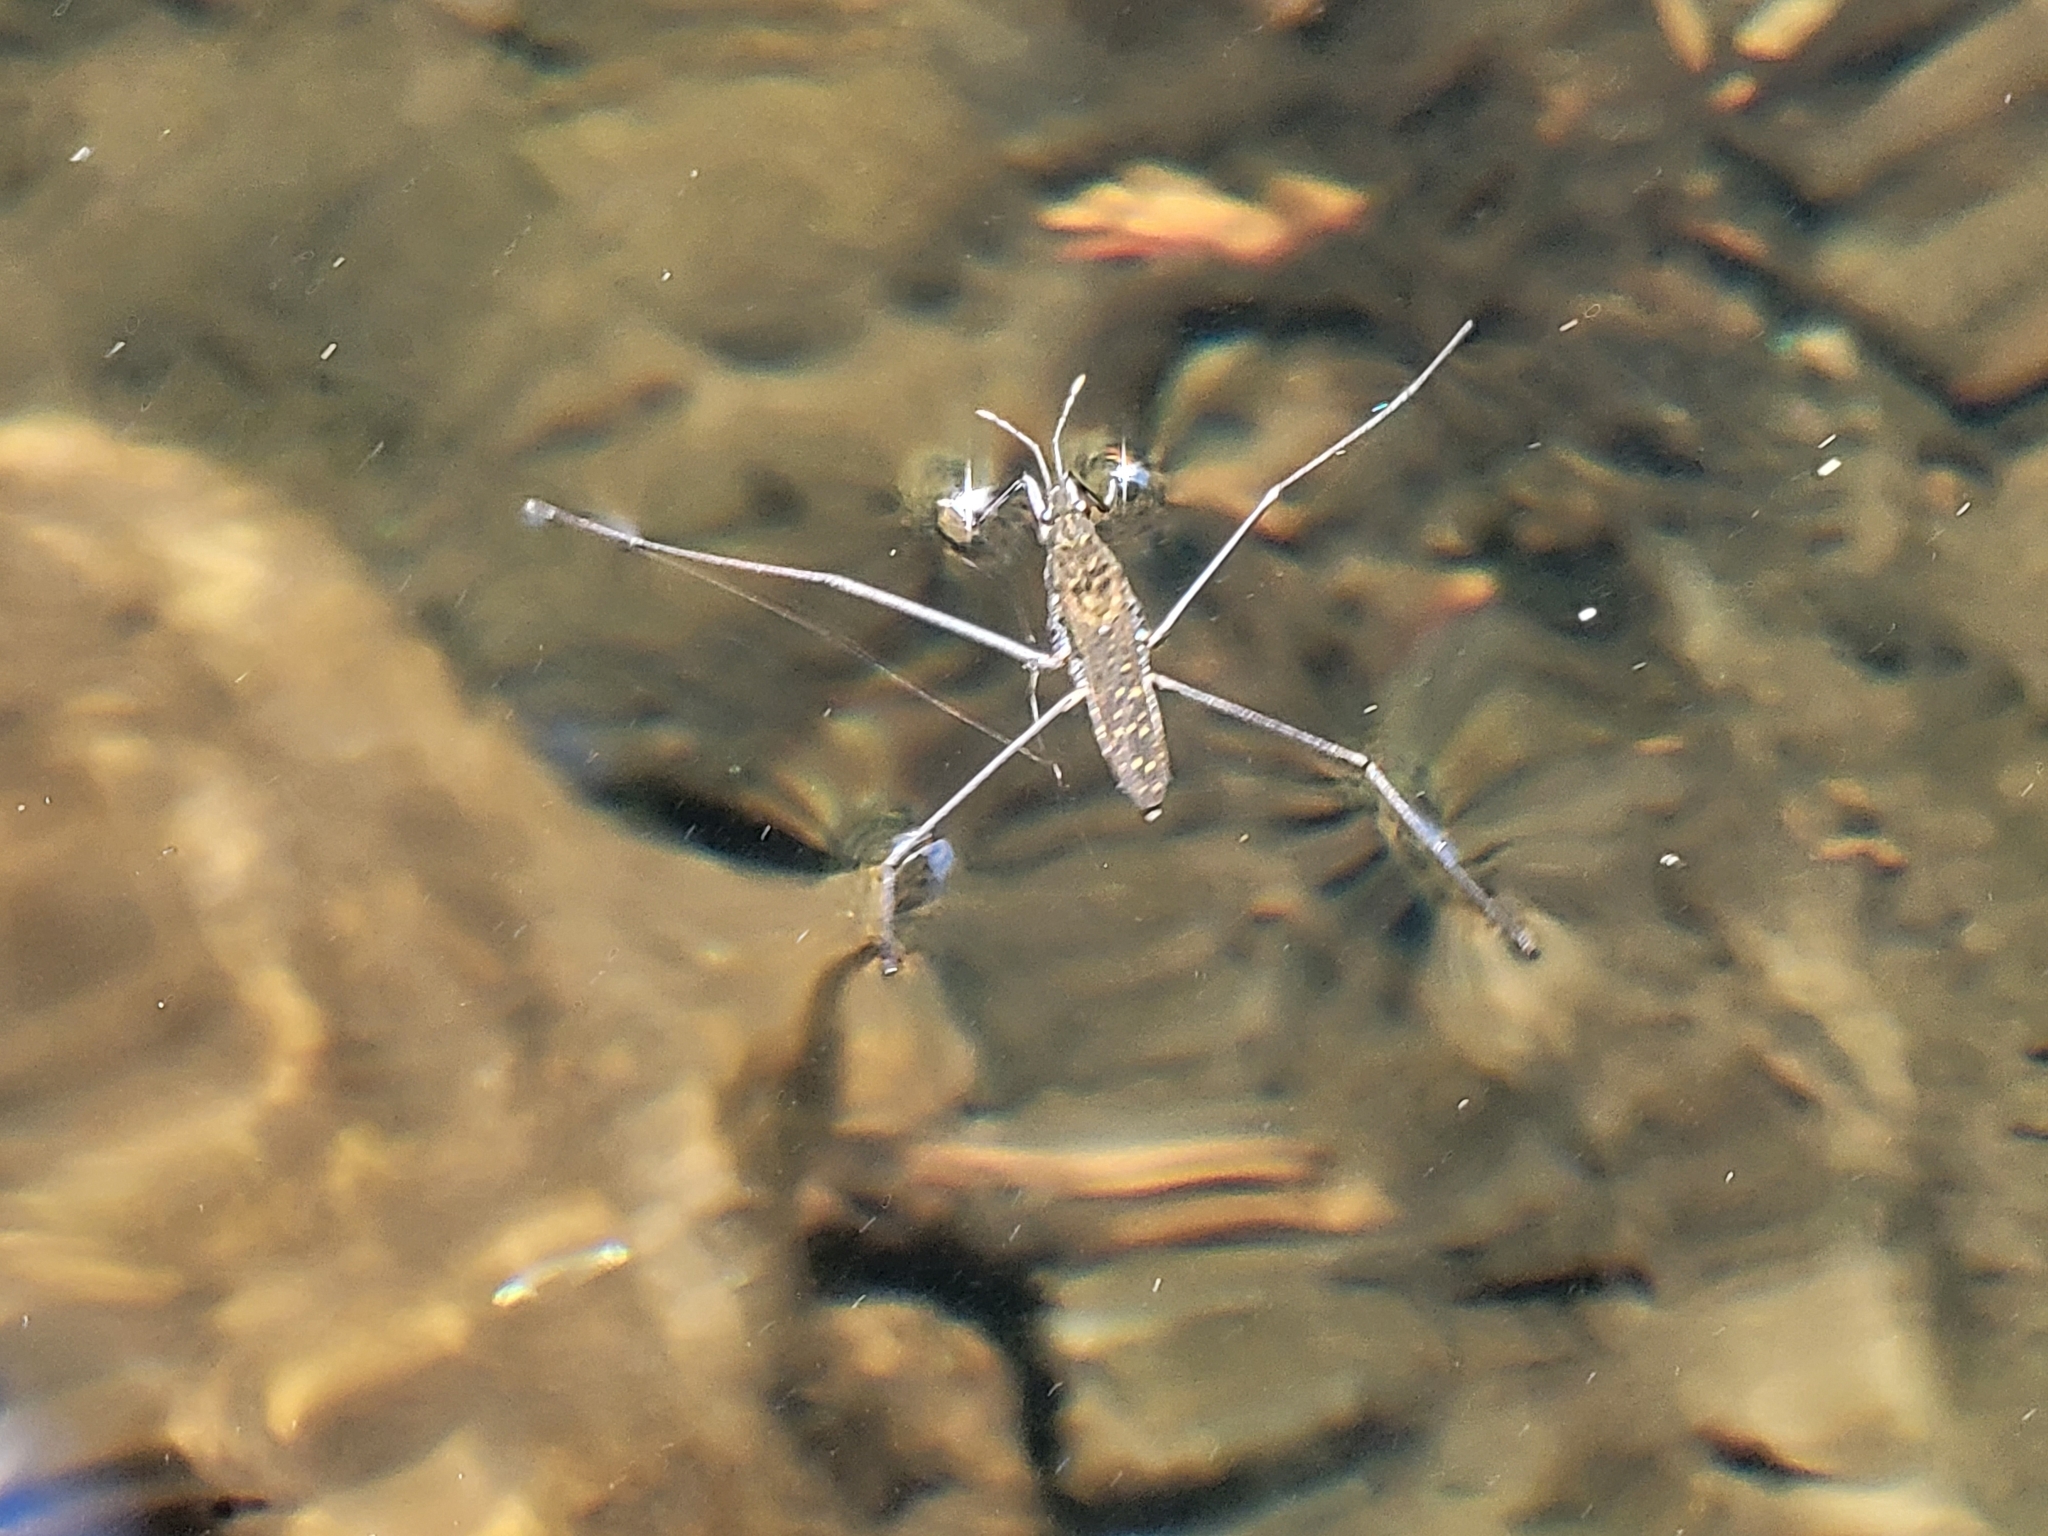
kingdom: Animalia
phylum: Arthropoda
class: Insecta
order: Hemiptera
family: Gerridae
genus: Aquarius
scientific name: Aquarius remigis
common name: Common water strider
